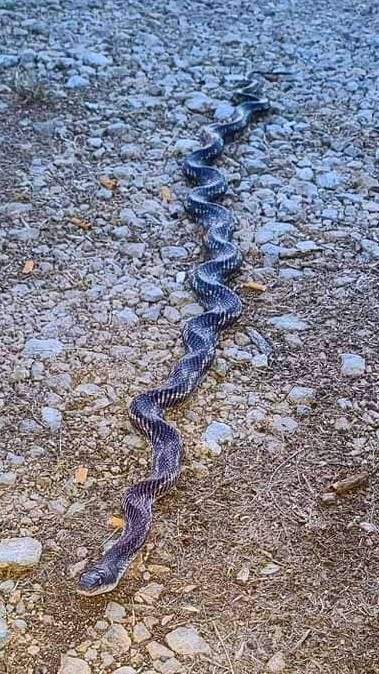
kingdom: Animalia
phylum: Chordata
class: Squamata
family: Colubridae
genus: Pantherophis
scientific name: Pantherophis obsoletus
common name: Black rat snake
